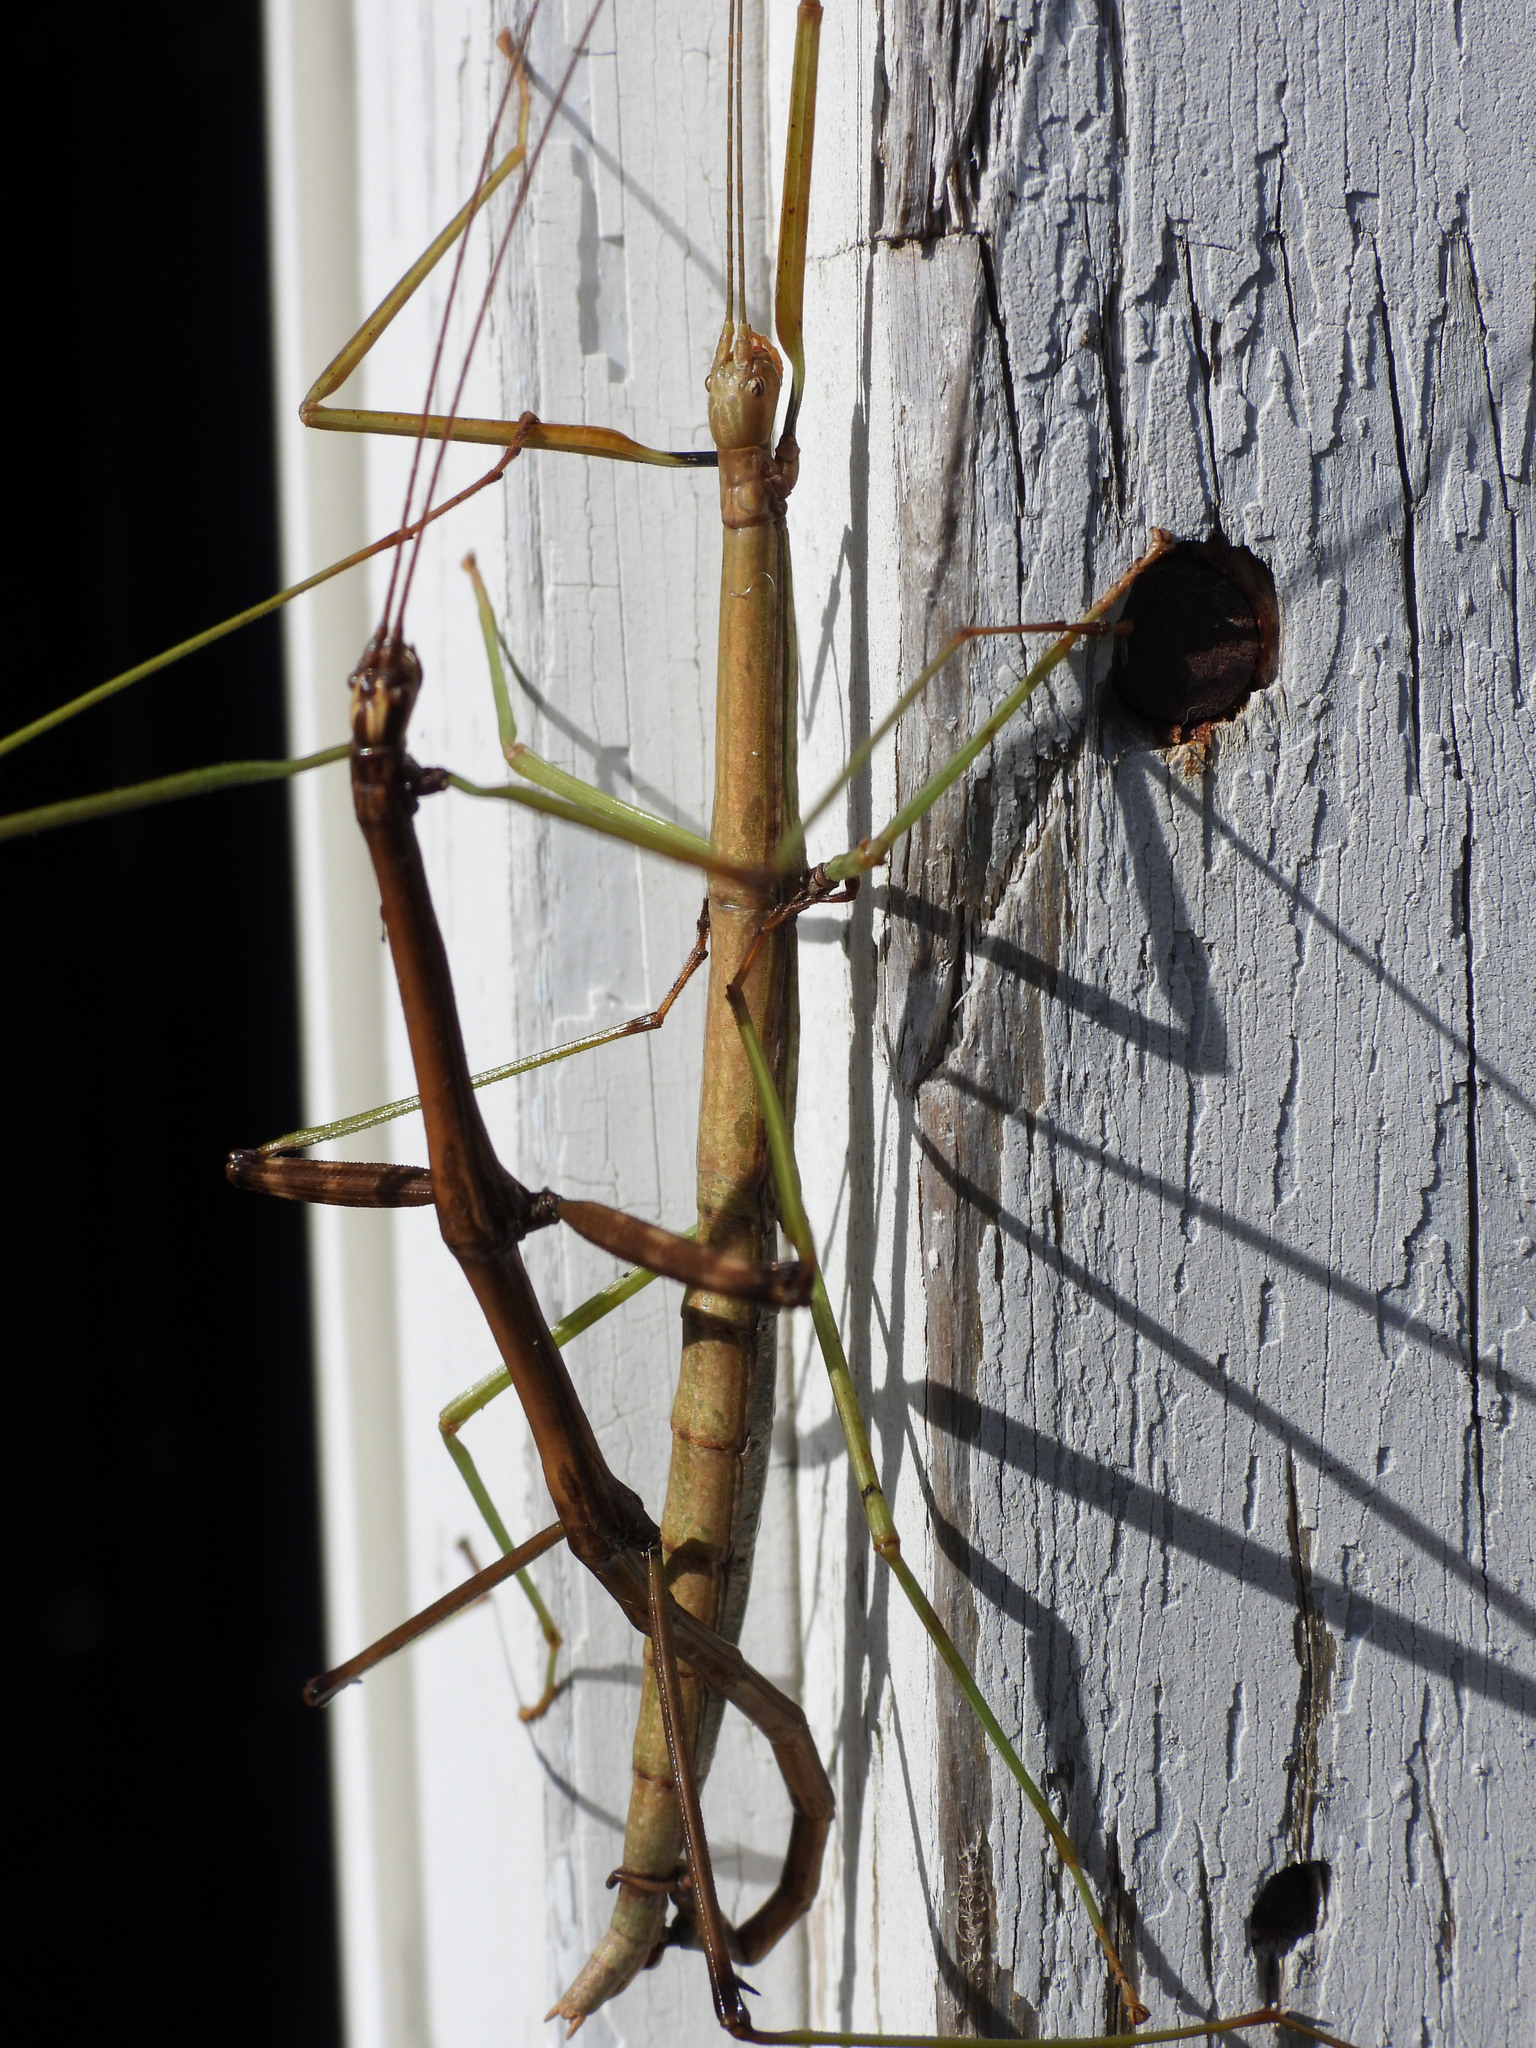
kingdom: Animalia
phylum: Arthropoda
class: Insecta
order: Phasmida
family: Diapheromeridae
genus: Diapheromera
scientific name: Diapheromera femorata
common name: Common american walkingstick
